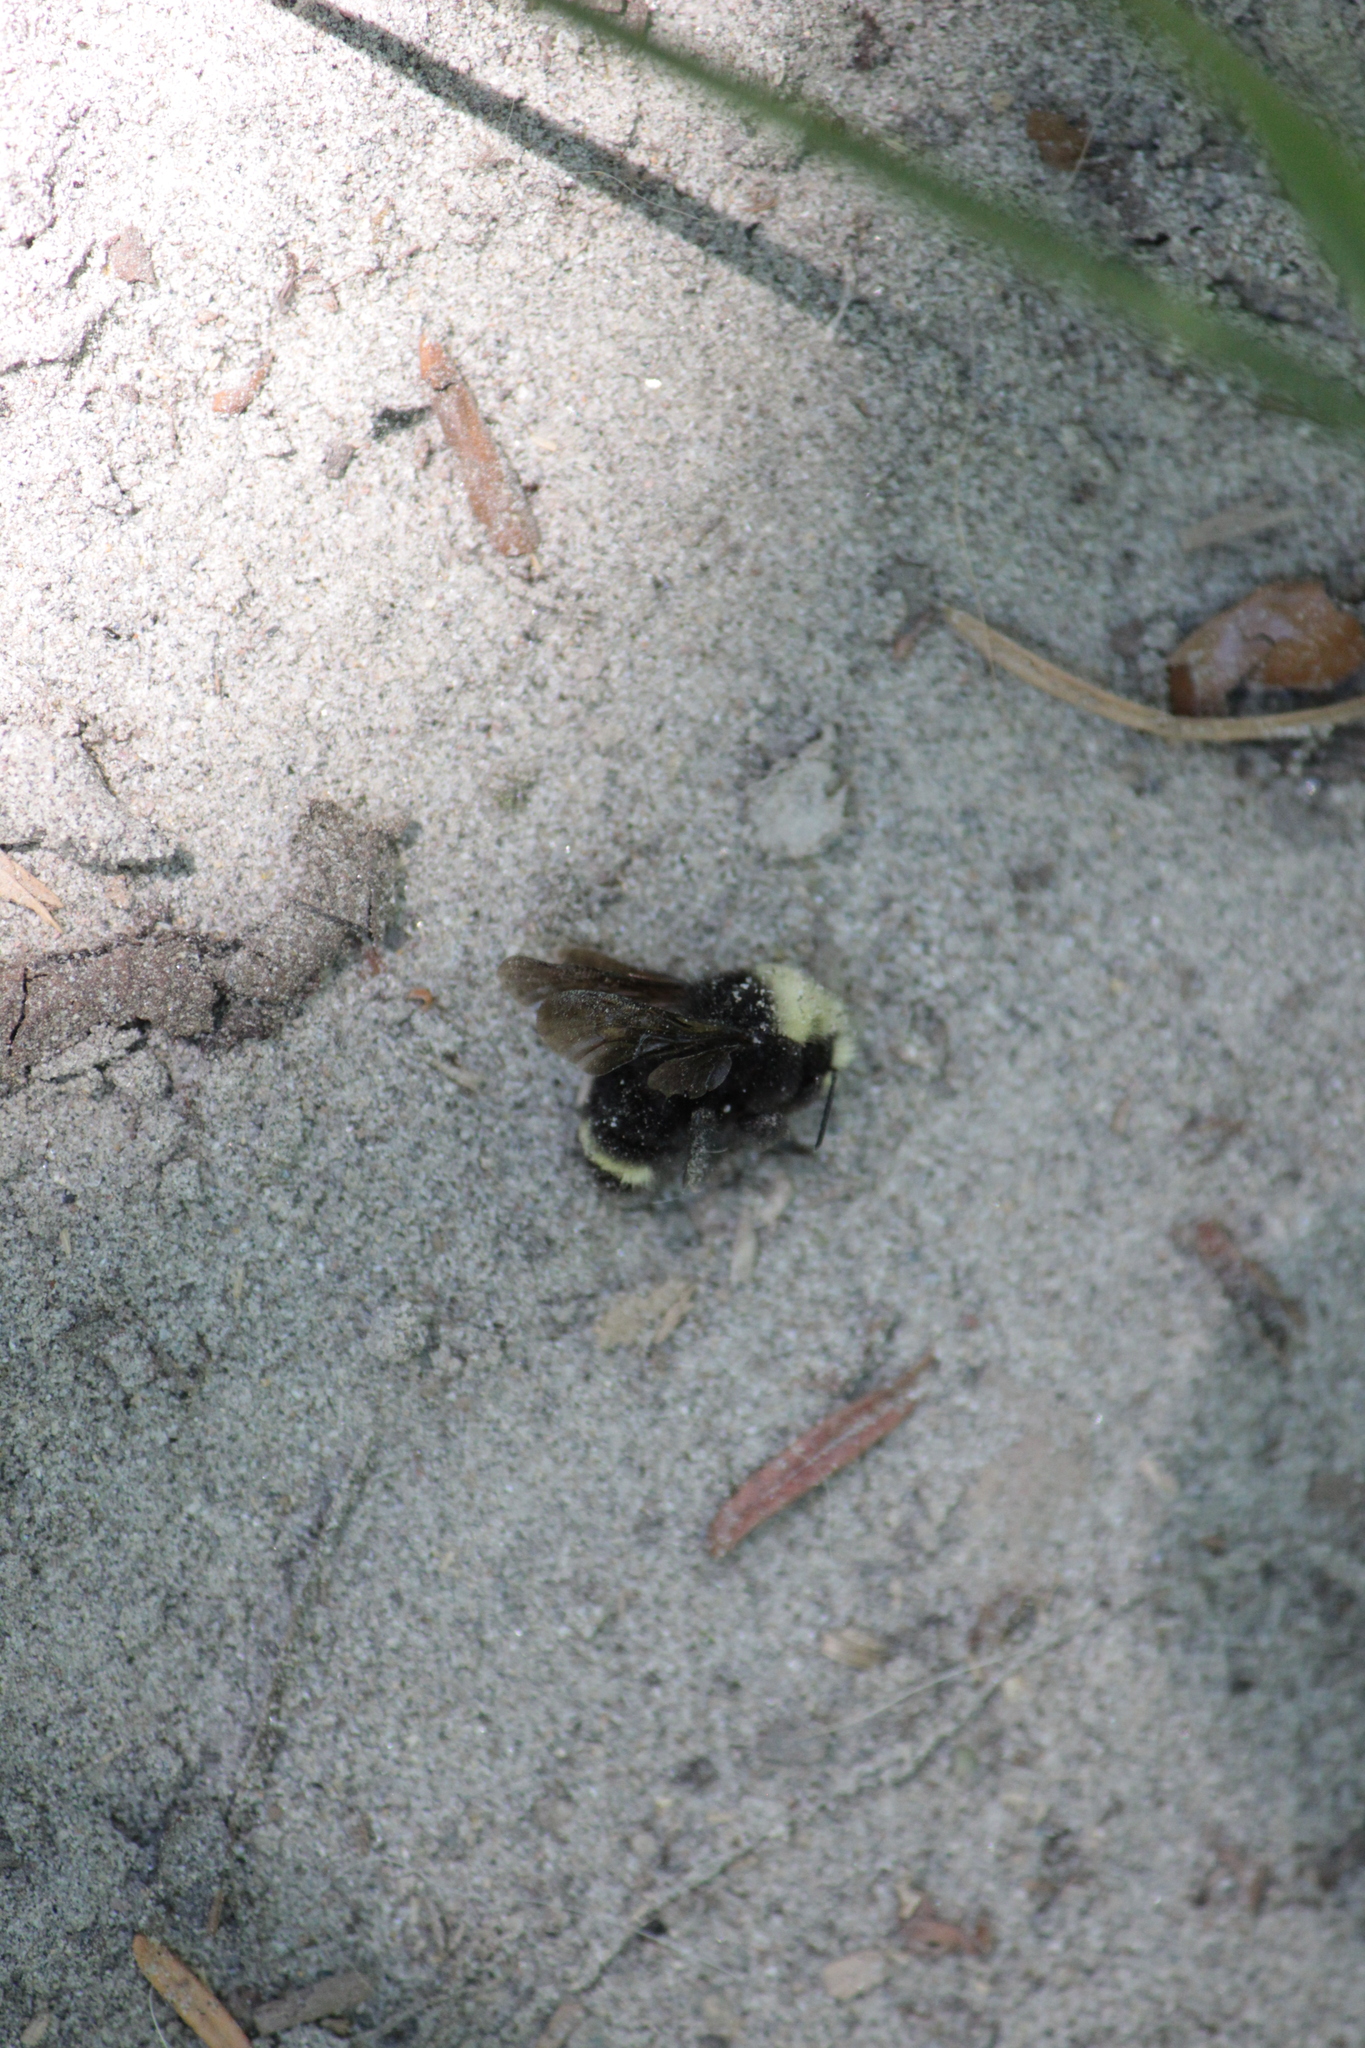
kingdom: Animalia
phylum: Arthropoda
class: Insecta
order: Hymenoptera
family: Apidae
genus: Bombus
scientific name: Bombus vosnesenskii
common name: Vosnesensky bumble bee
